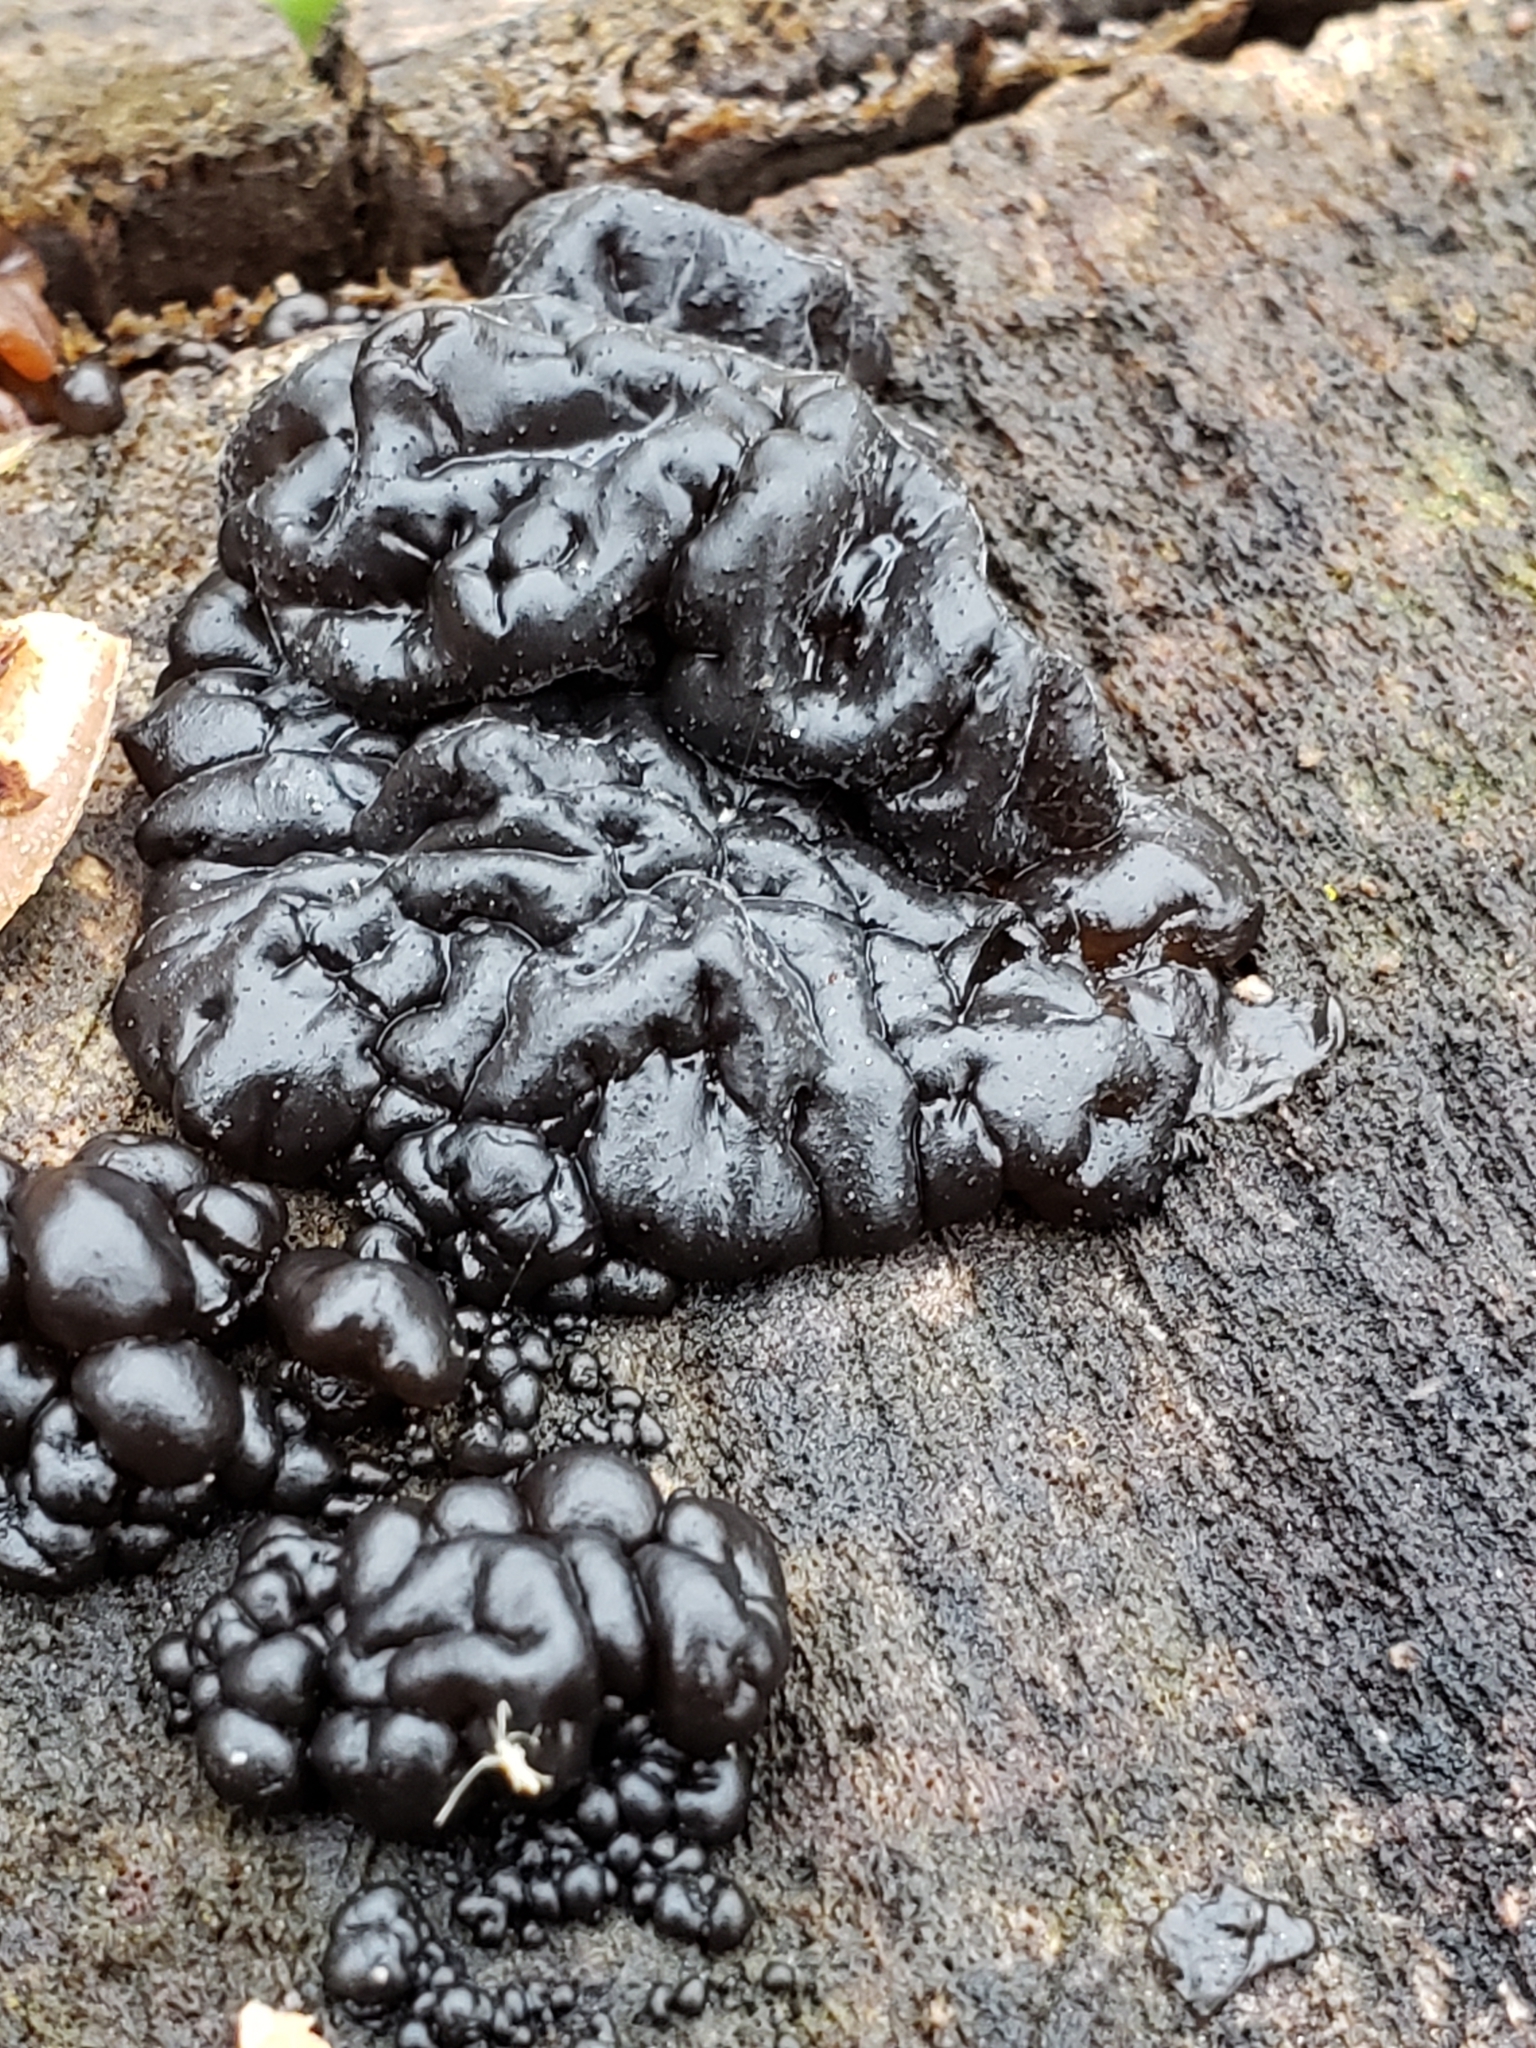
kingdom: Fungi
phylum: Basidiomycota
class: Agaricomycetes
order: Auriculariales
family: Auriculariaceae
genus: Exidia
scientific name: Exidia glandulosa
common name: Witches' butter
